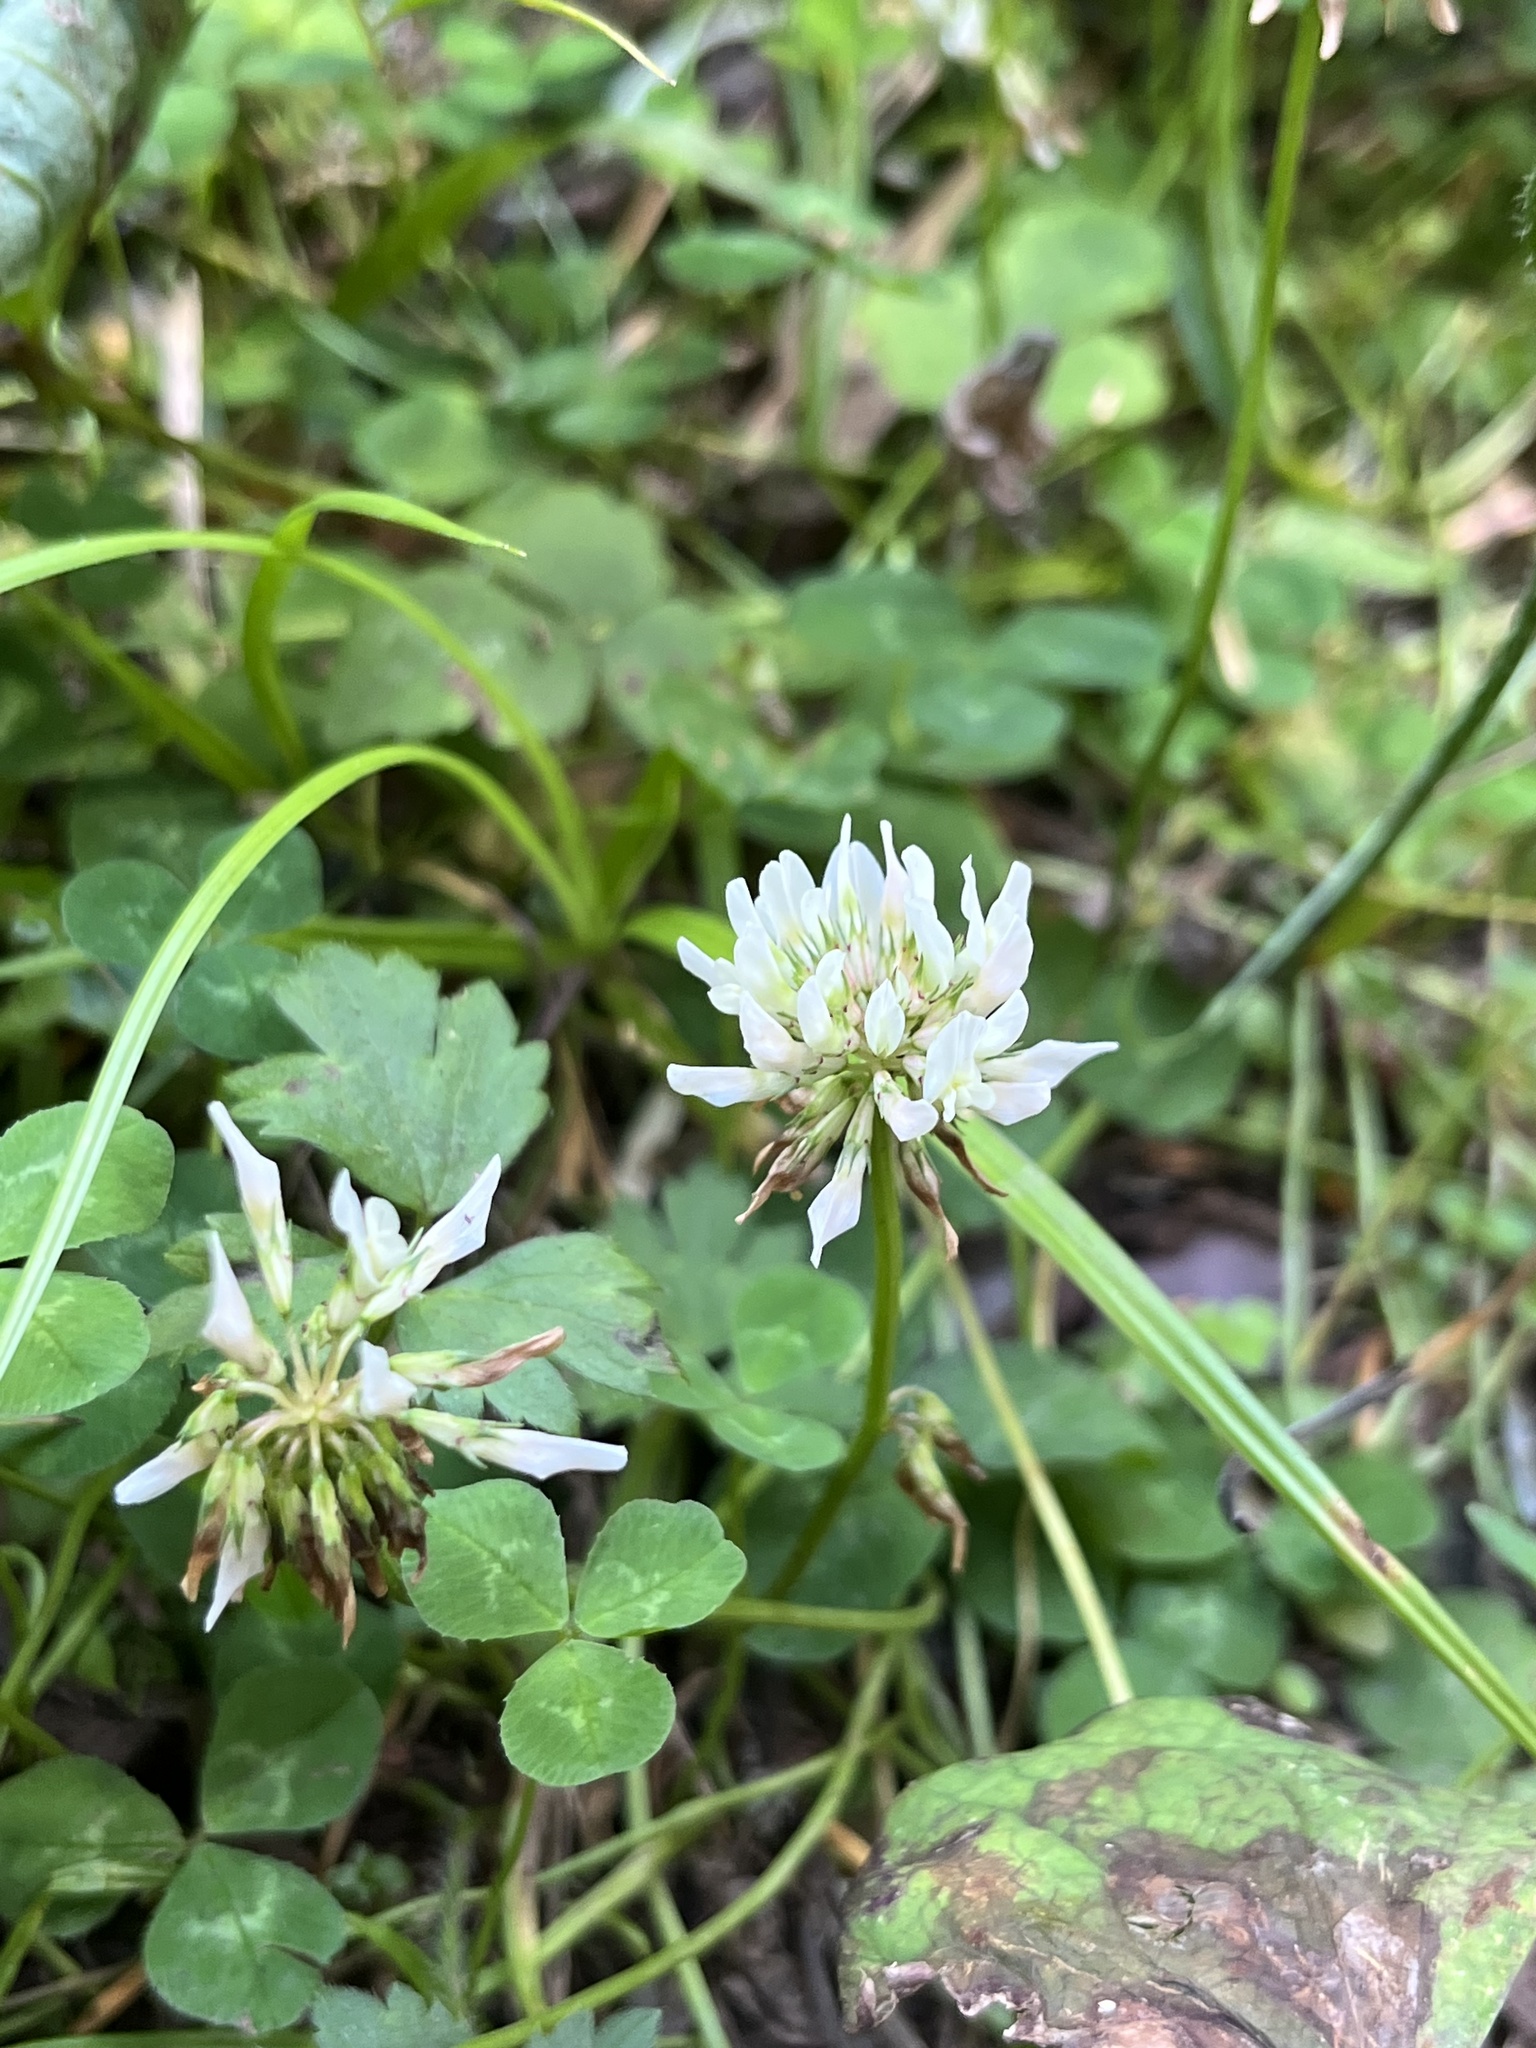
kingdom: Plantae
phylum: Tracheophyta
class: Magnoliopsida
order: Fabales
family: Fabaceae
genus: Trifolium
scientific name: Trifolium repens
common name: White clover
